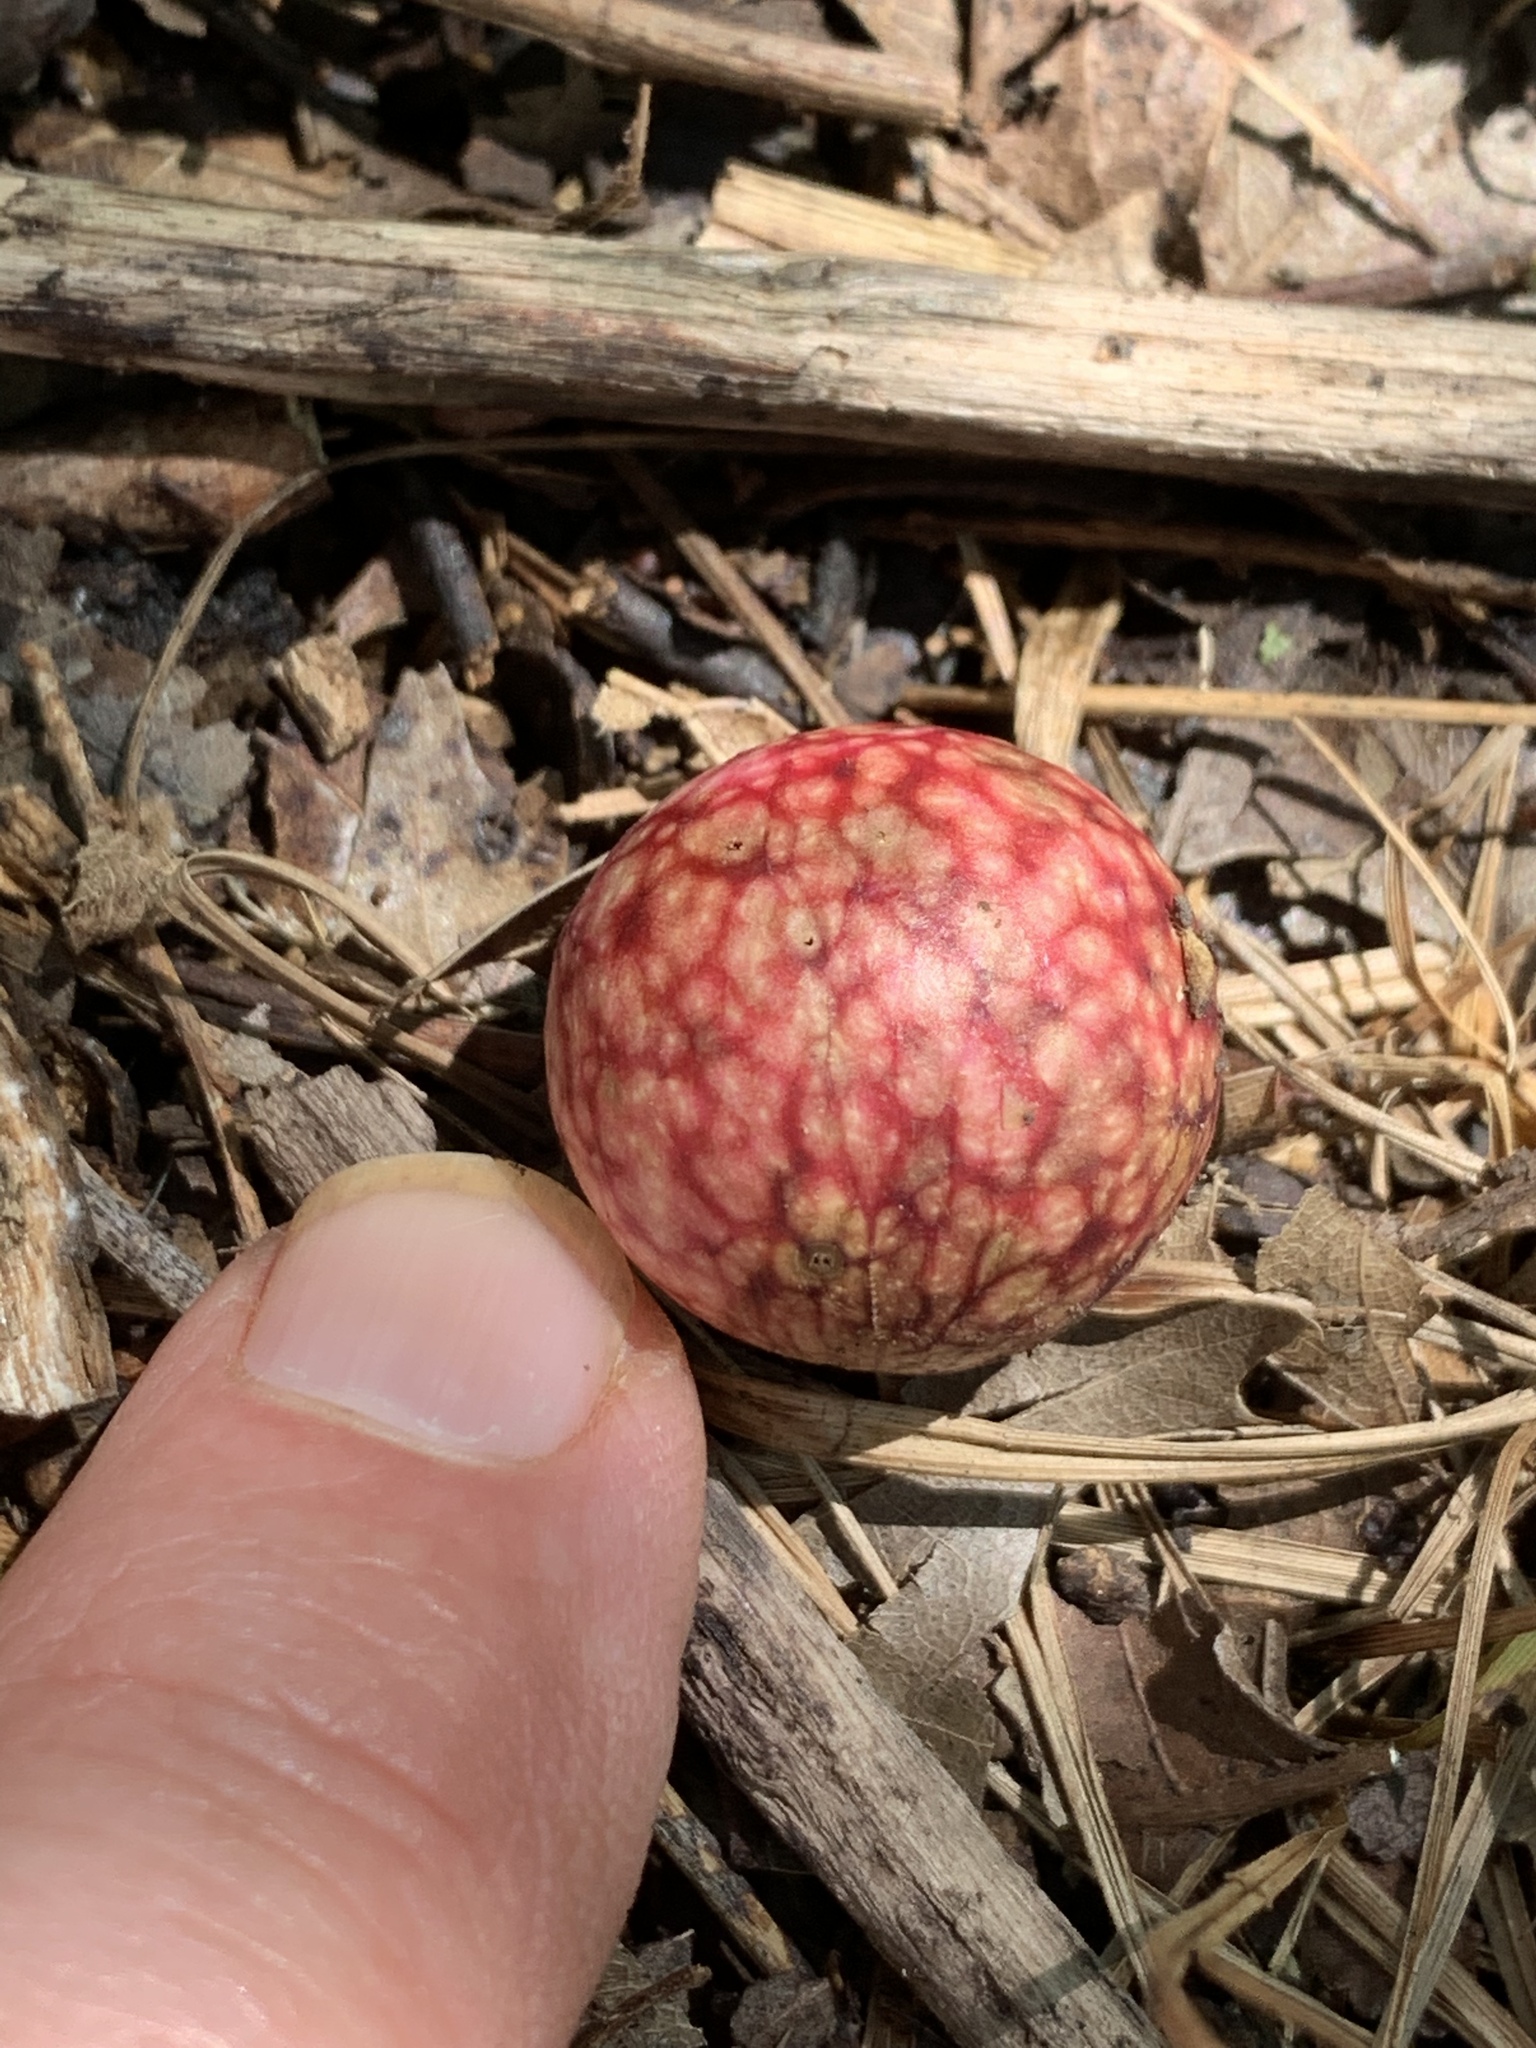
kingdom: Animalia
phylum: Arthropoda
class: Insecta
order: Hymenoptera
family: Cynipidae
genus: Amphibolips
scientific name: Amphibolips
